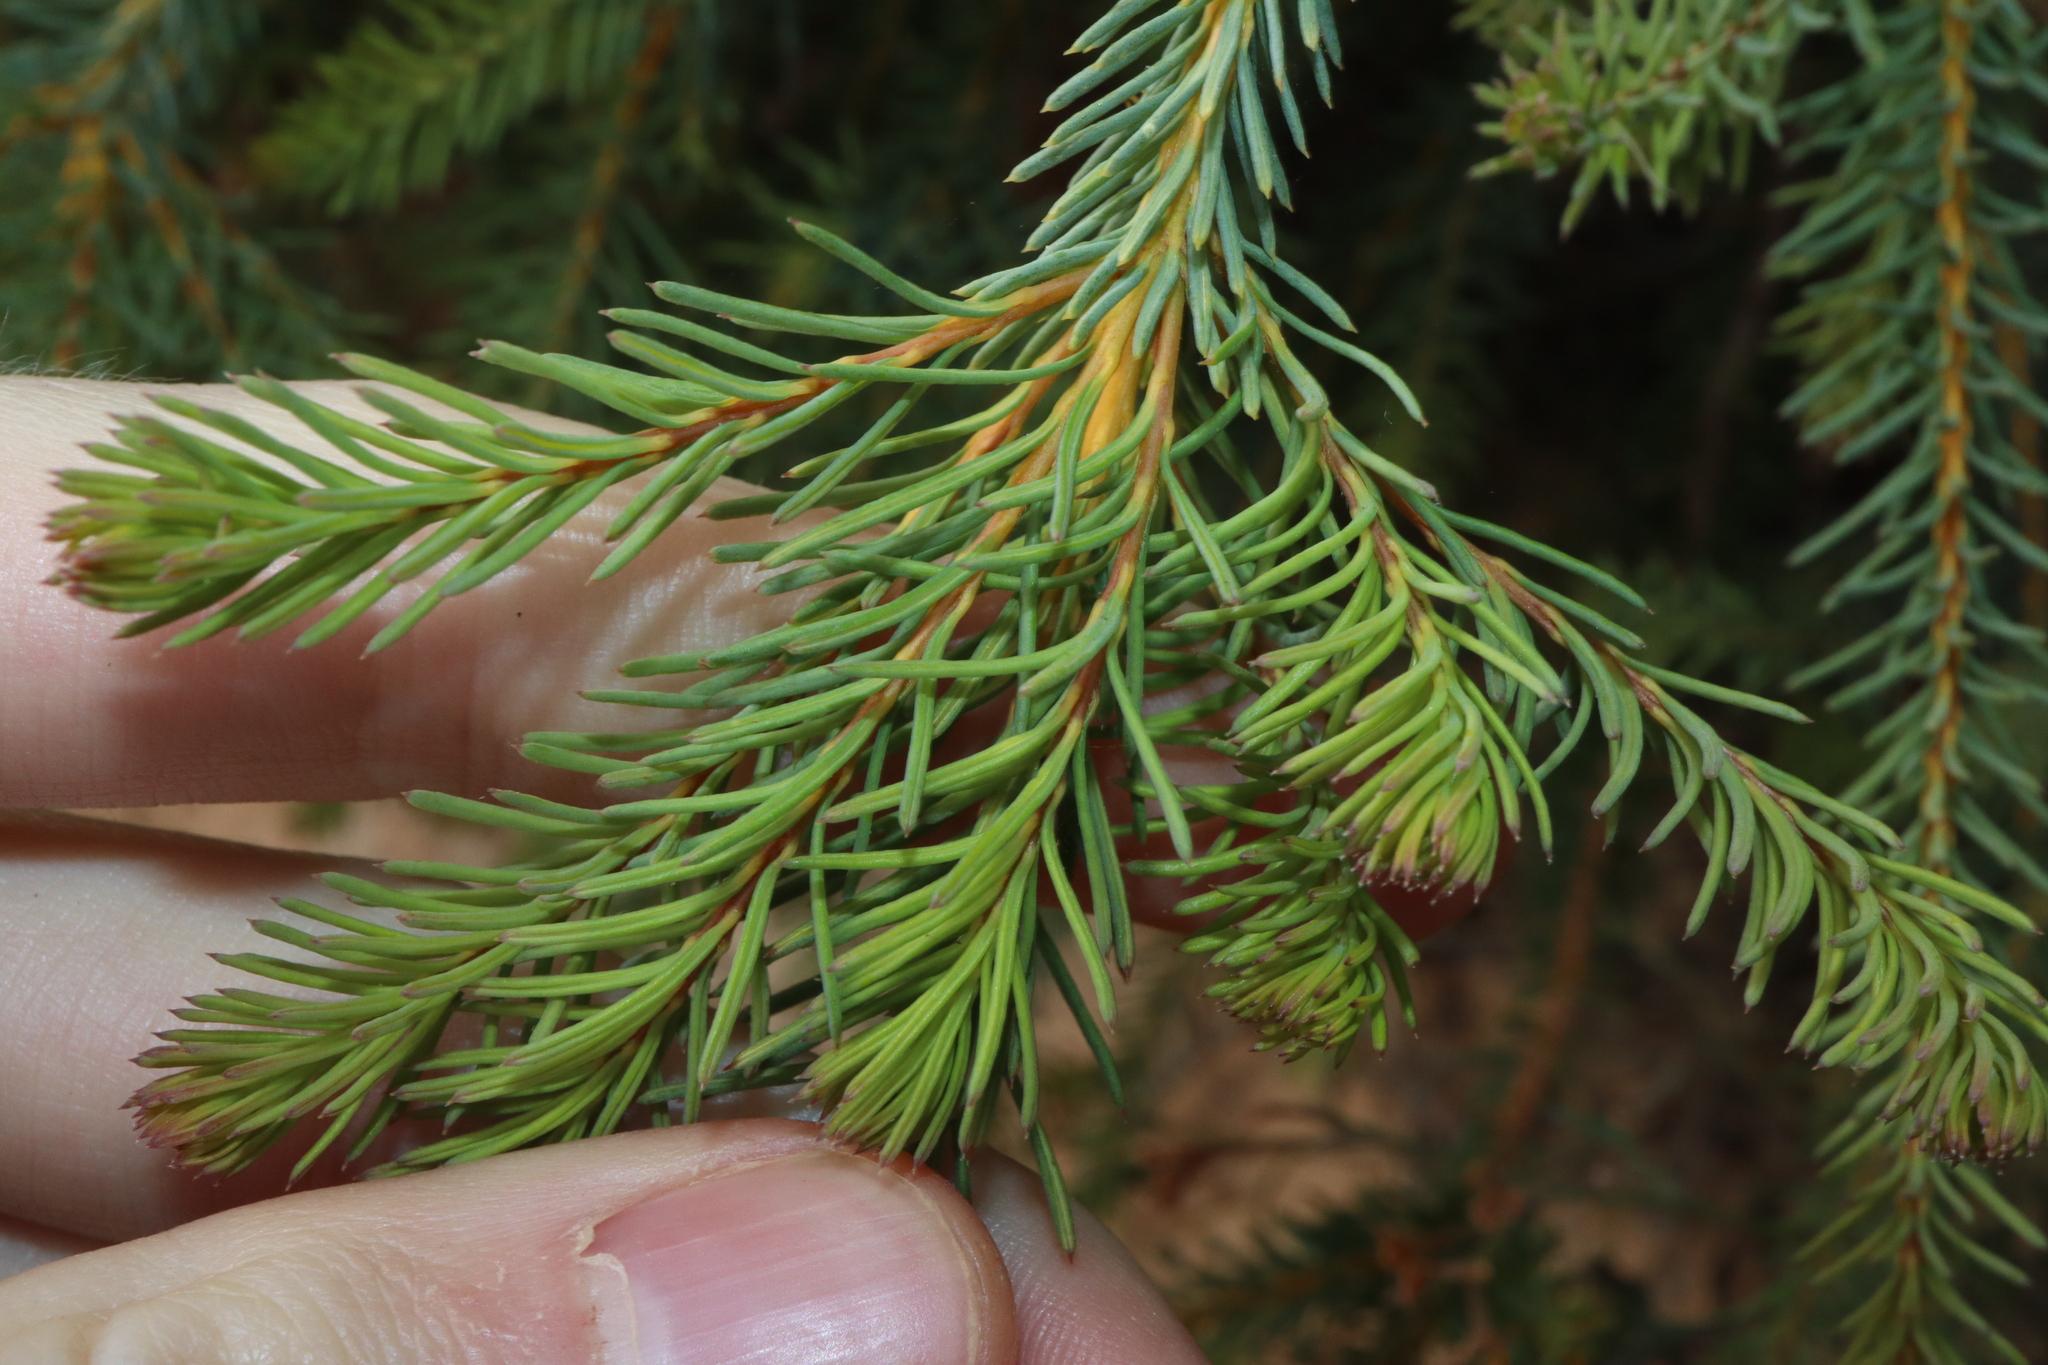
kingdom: Plantae
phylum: Tracheophyta
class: Magnoliopsida
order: Proteales
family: Proteaceae
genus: Banksia
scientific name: Banksia nutans
